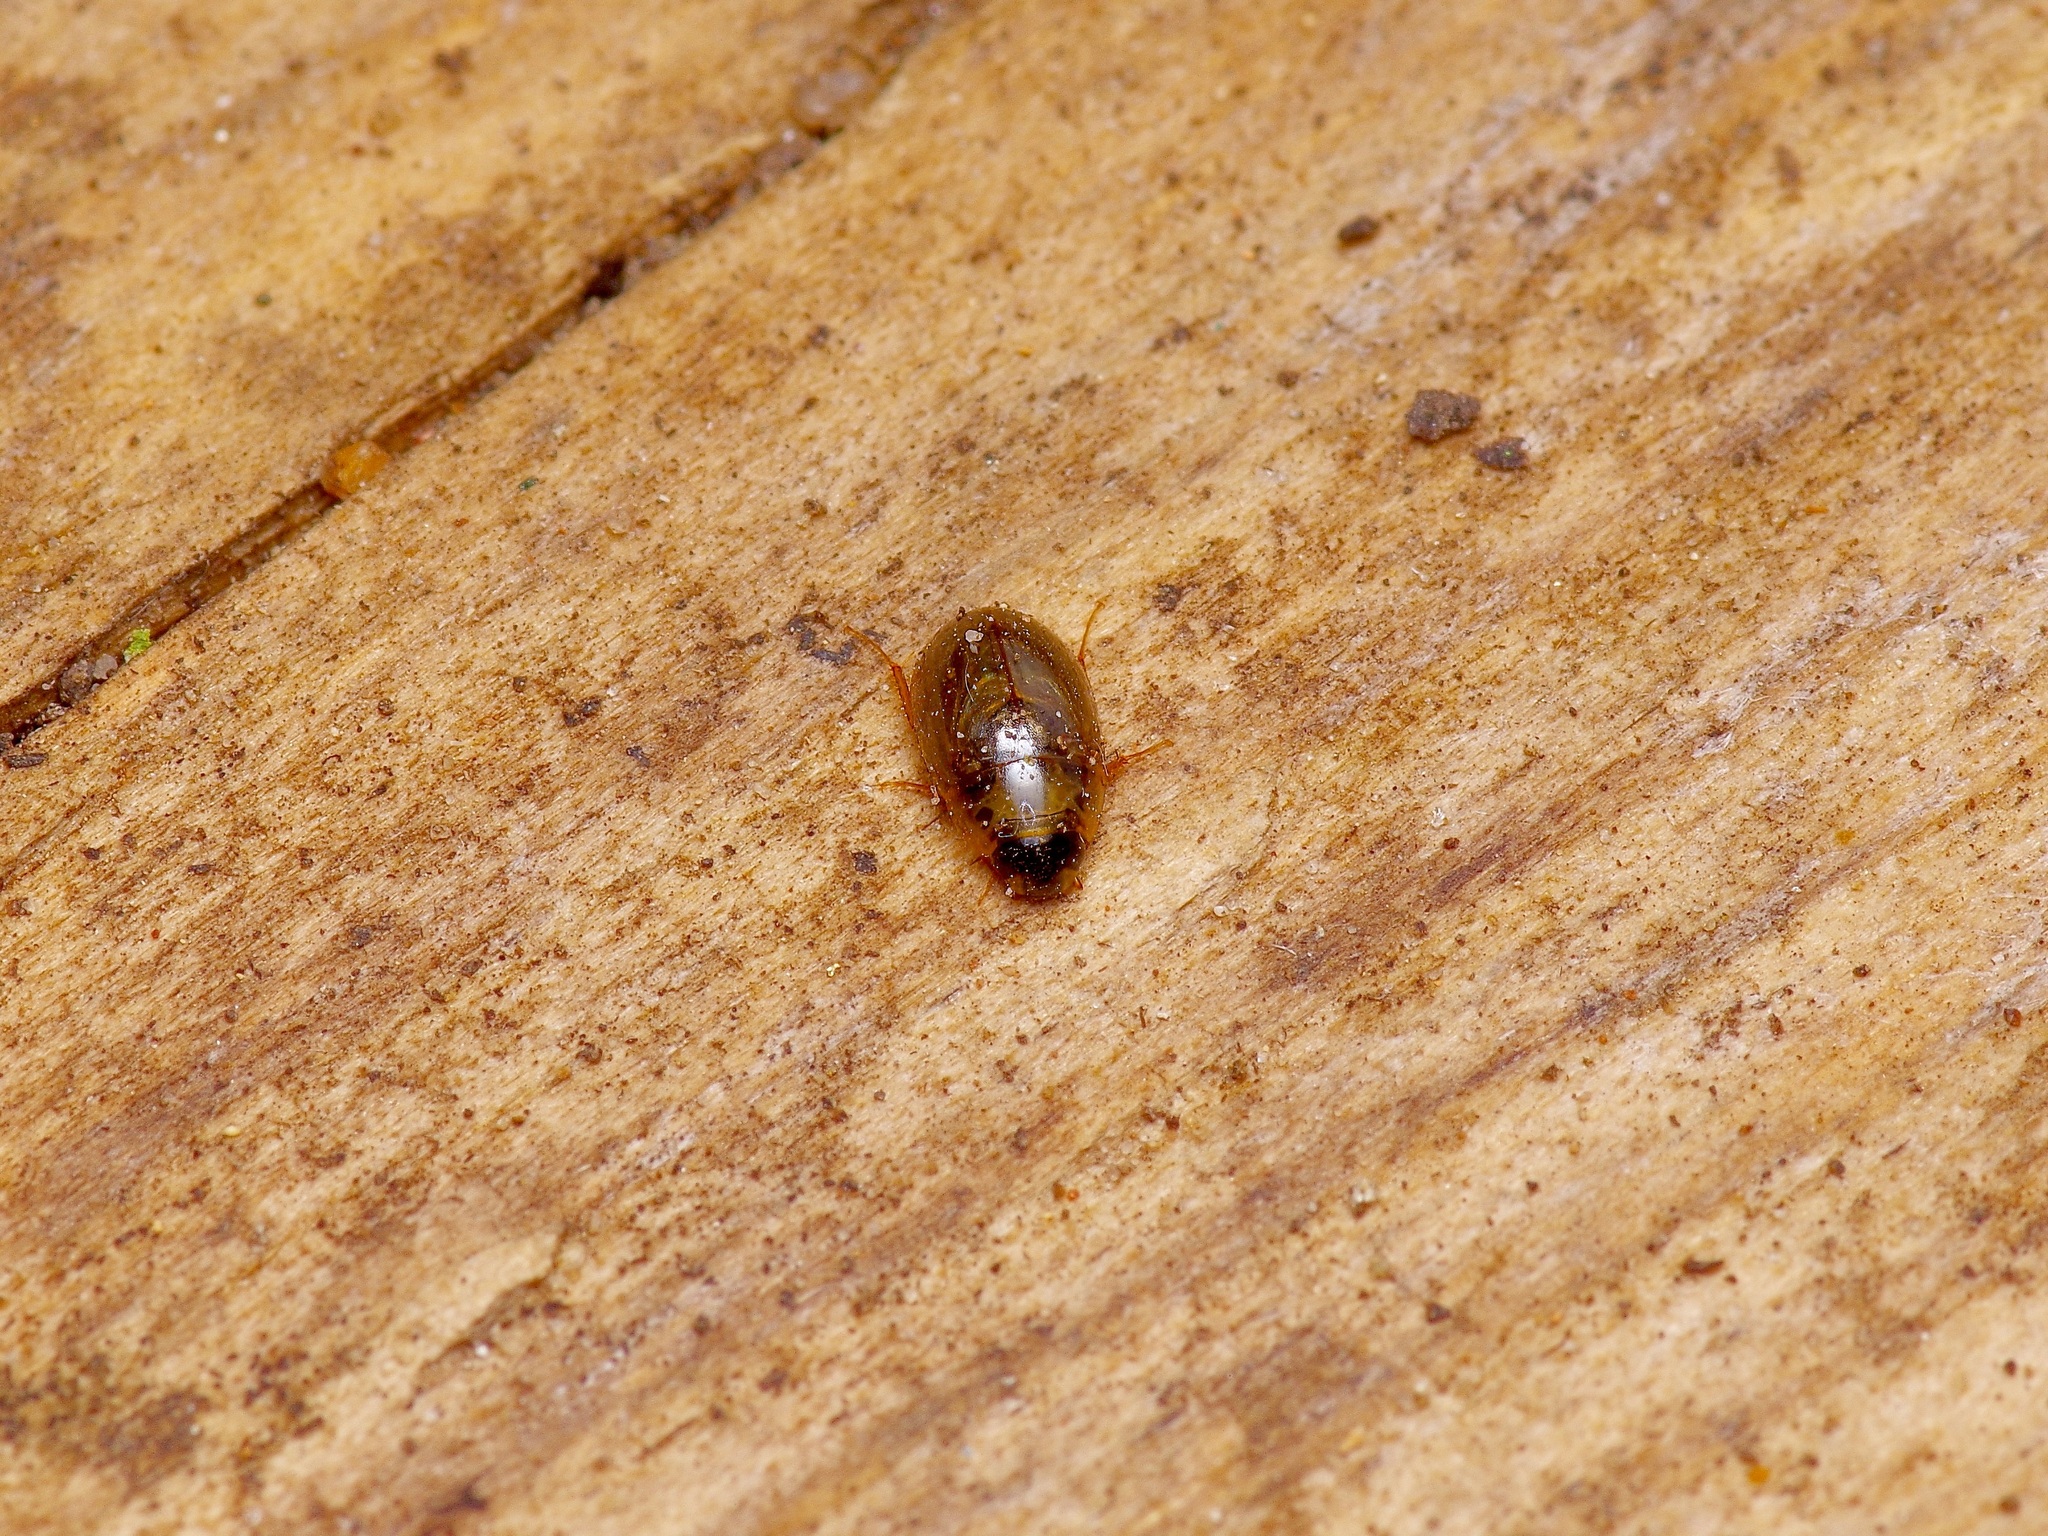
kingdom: Animalia
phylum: Arthropoda
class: Insecta
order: Coleoptera
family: Hydrophilidae
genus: Enochrus
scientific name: Enochrus
